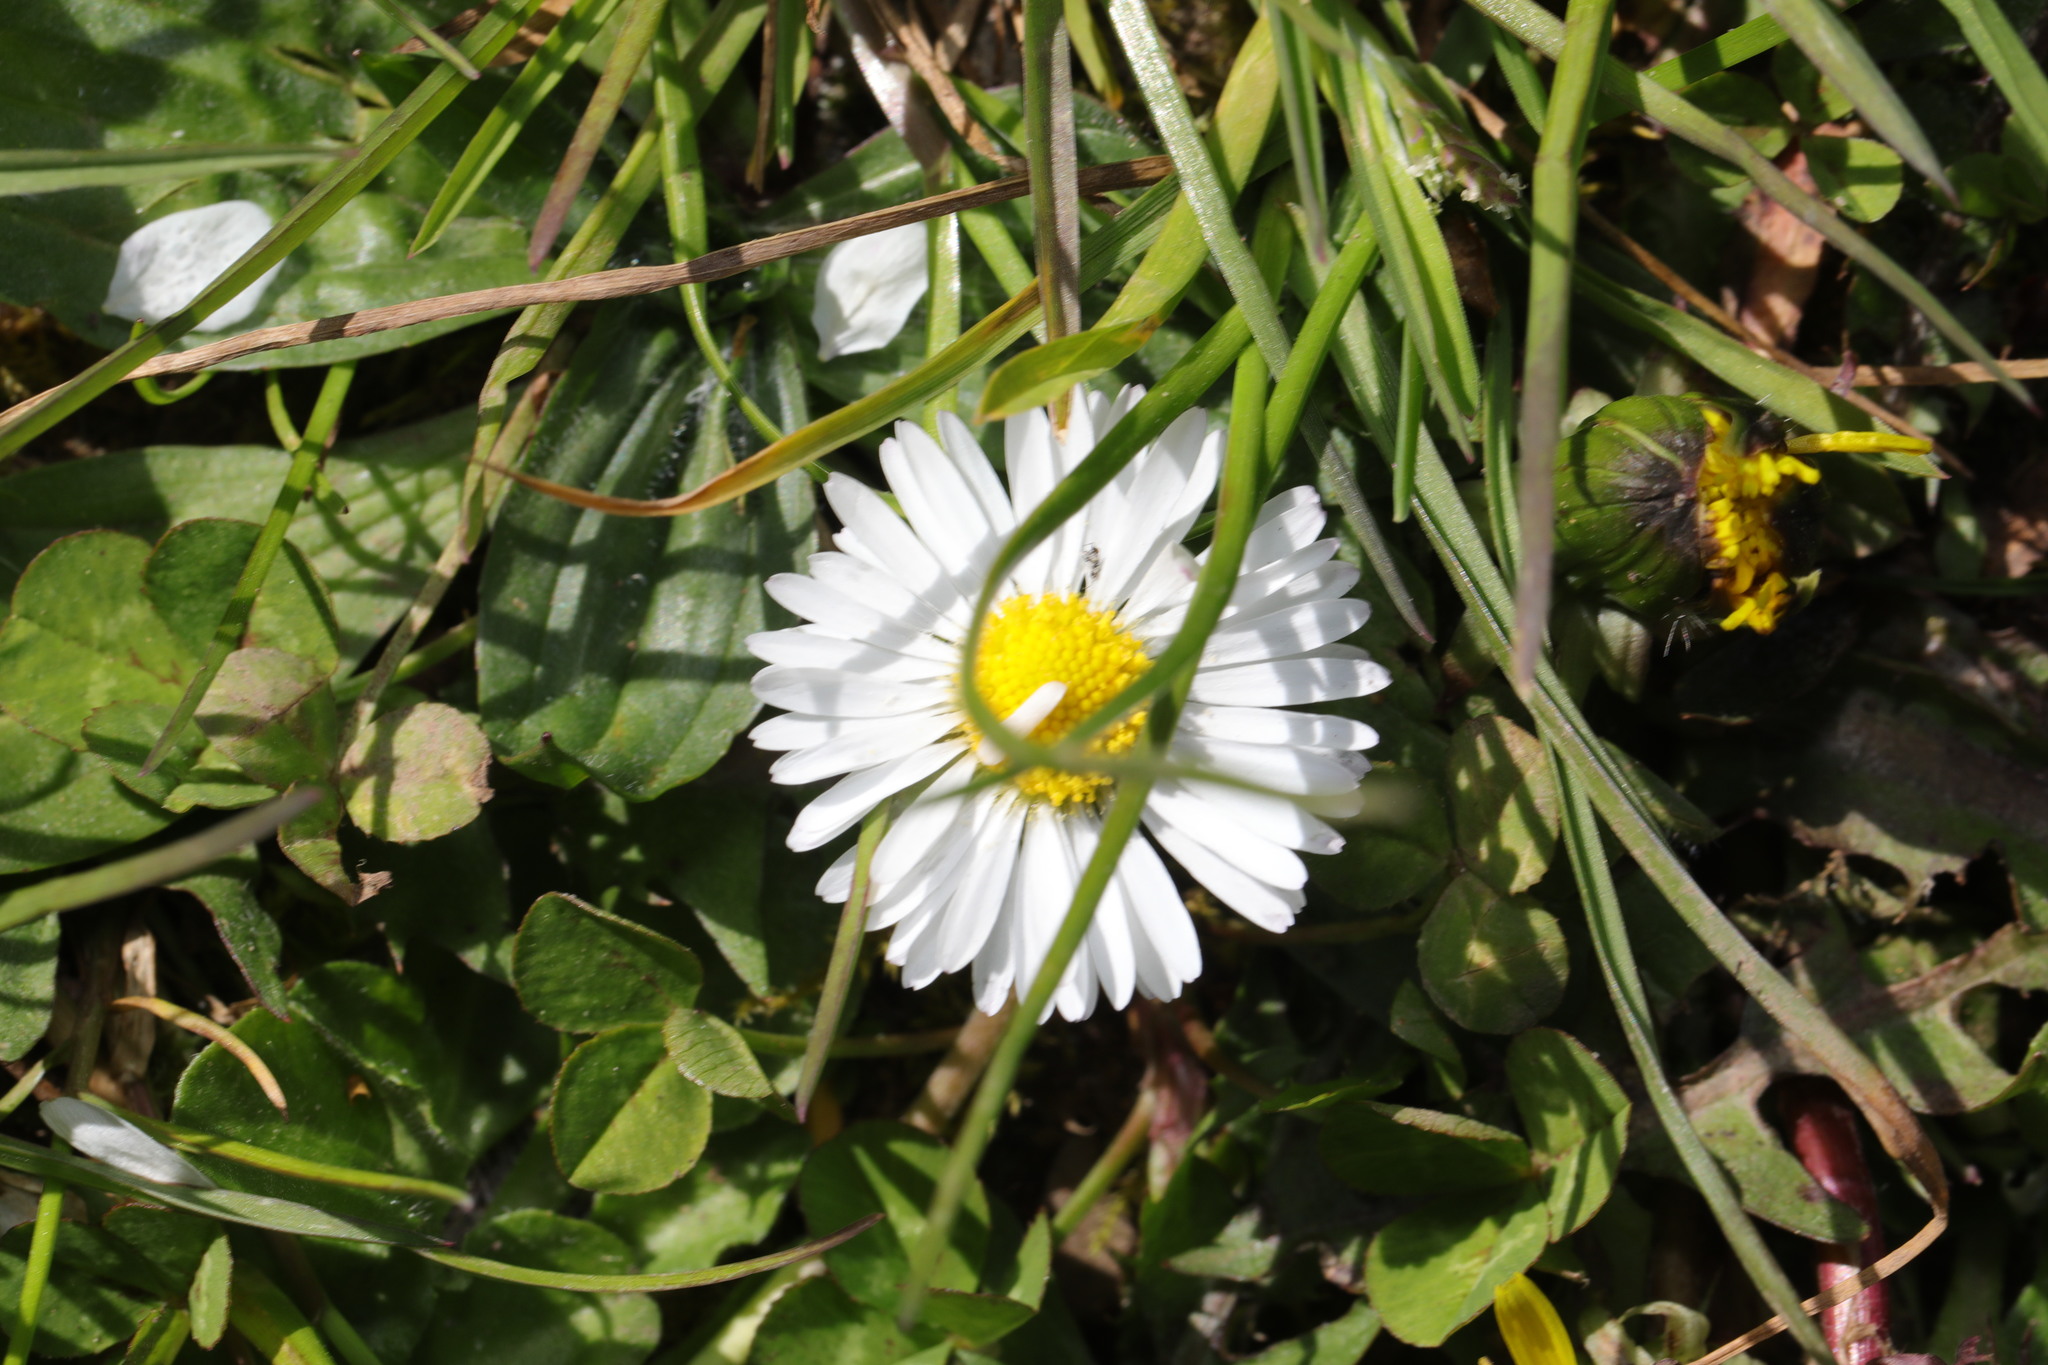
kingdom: Plantae
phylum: Tracheophyta
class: Magnoliopsida
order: Asterales
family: Asteraceae
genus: Bellis
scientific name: Bellis perennis
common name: Lawndaisy
